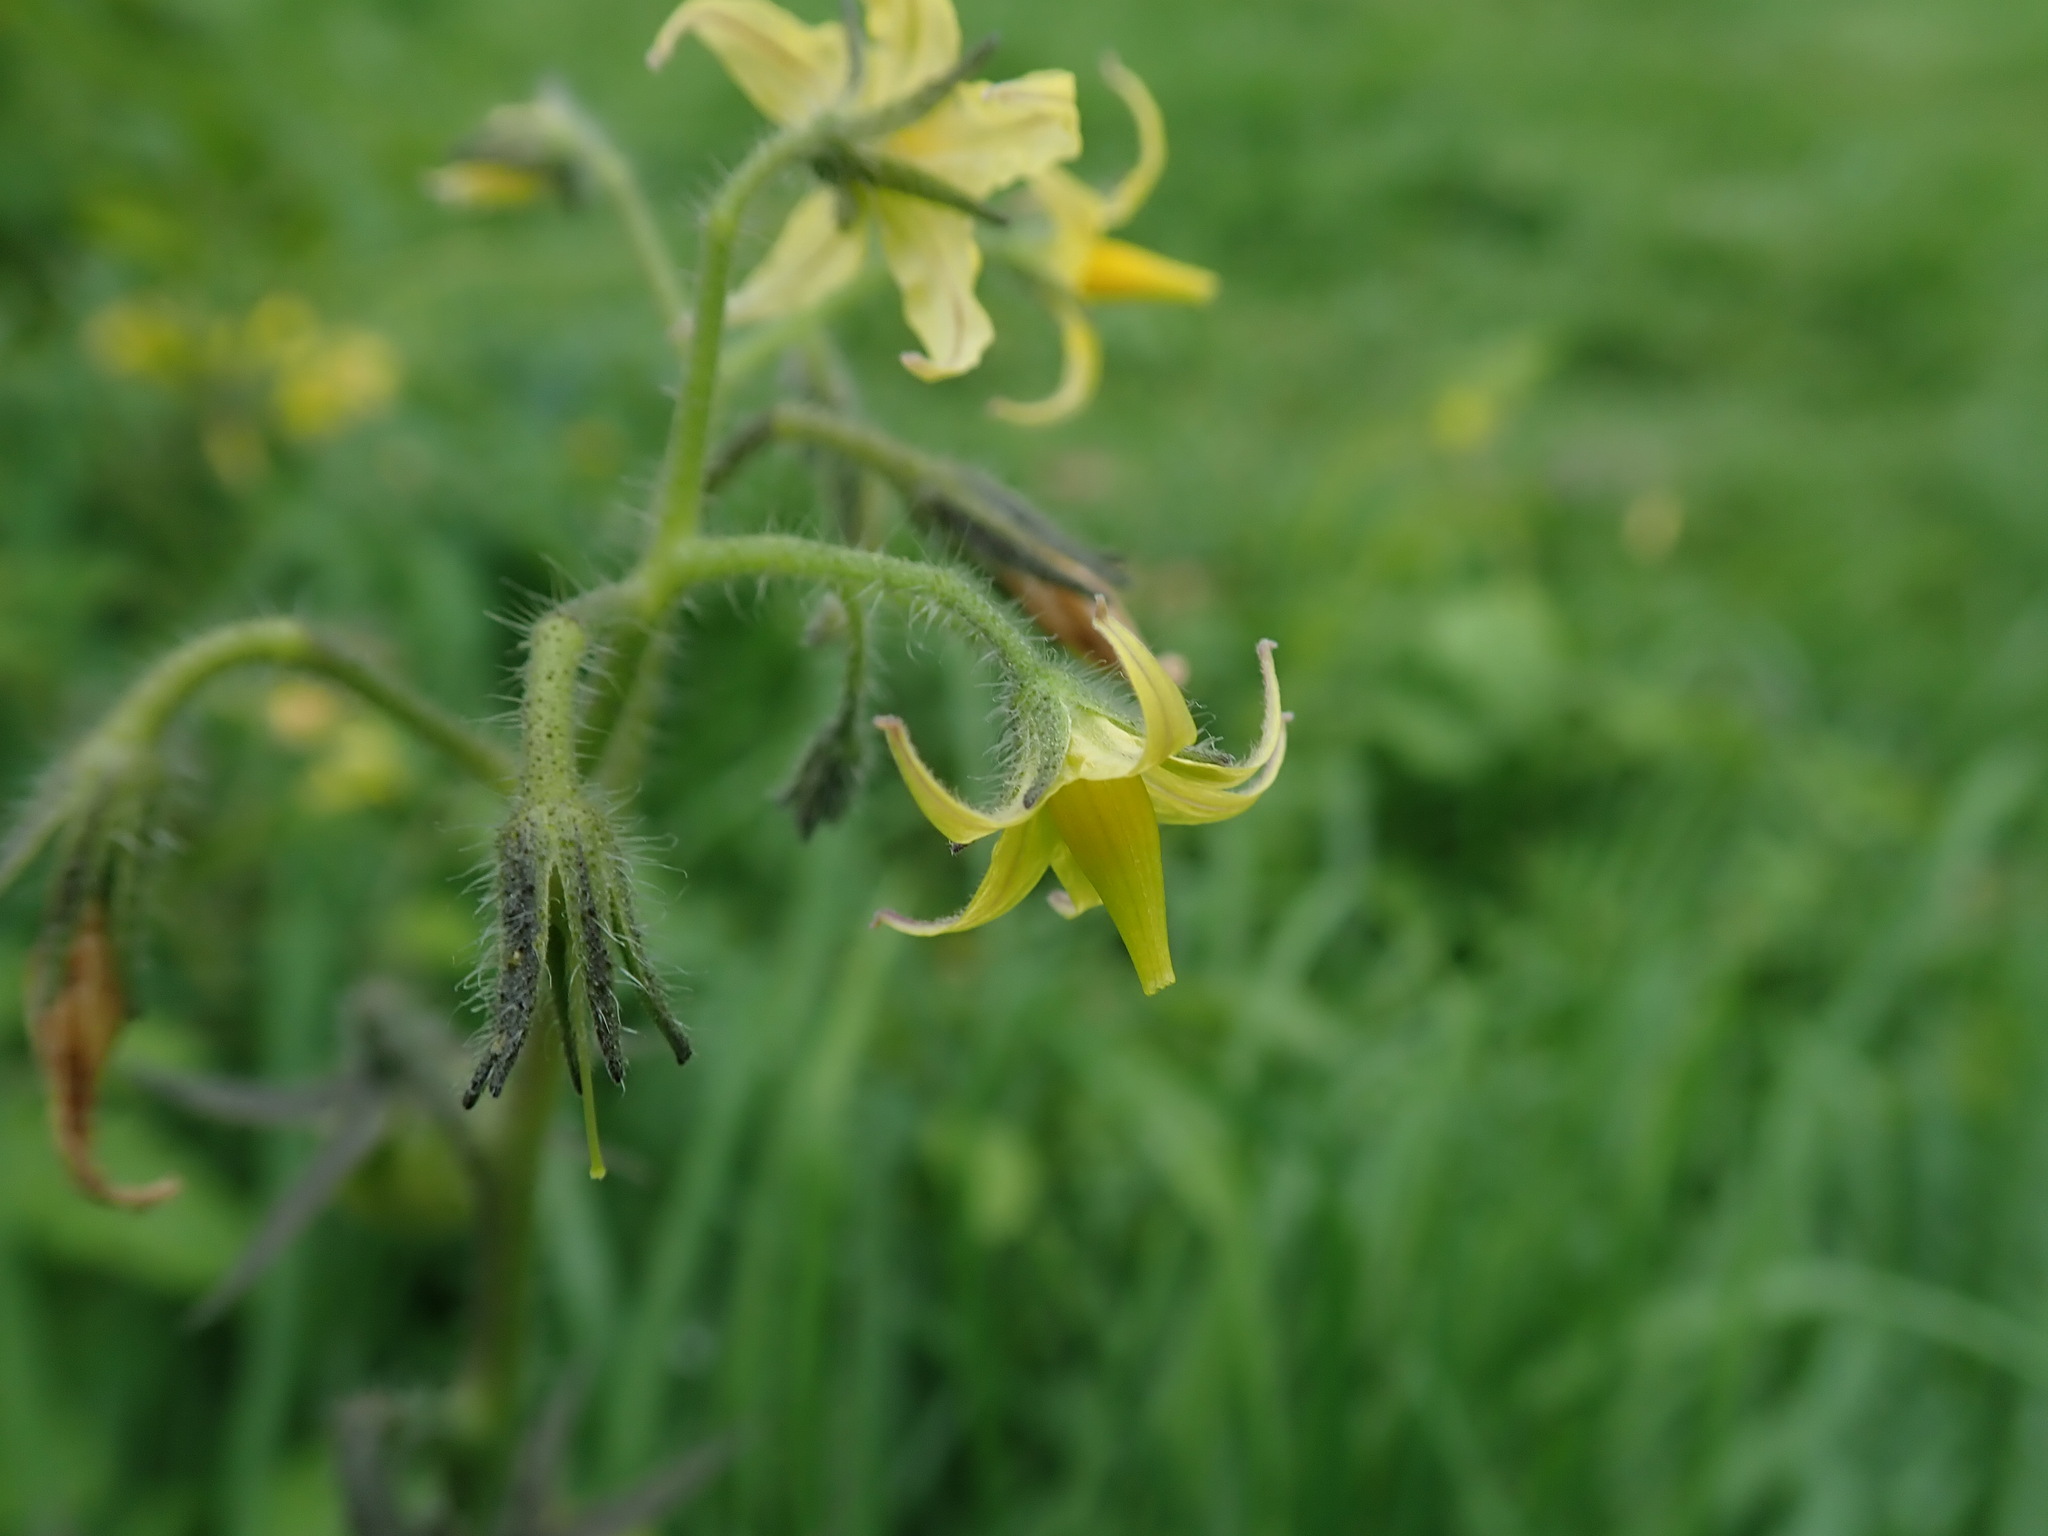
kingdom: Plantae
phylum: Tracheophyta
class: Magnoliopsida
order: Solanales
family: Solanaceae
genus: Solanum
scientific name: Solanum lycopersicum
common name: Garden tomato
